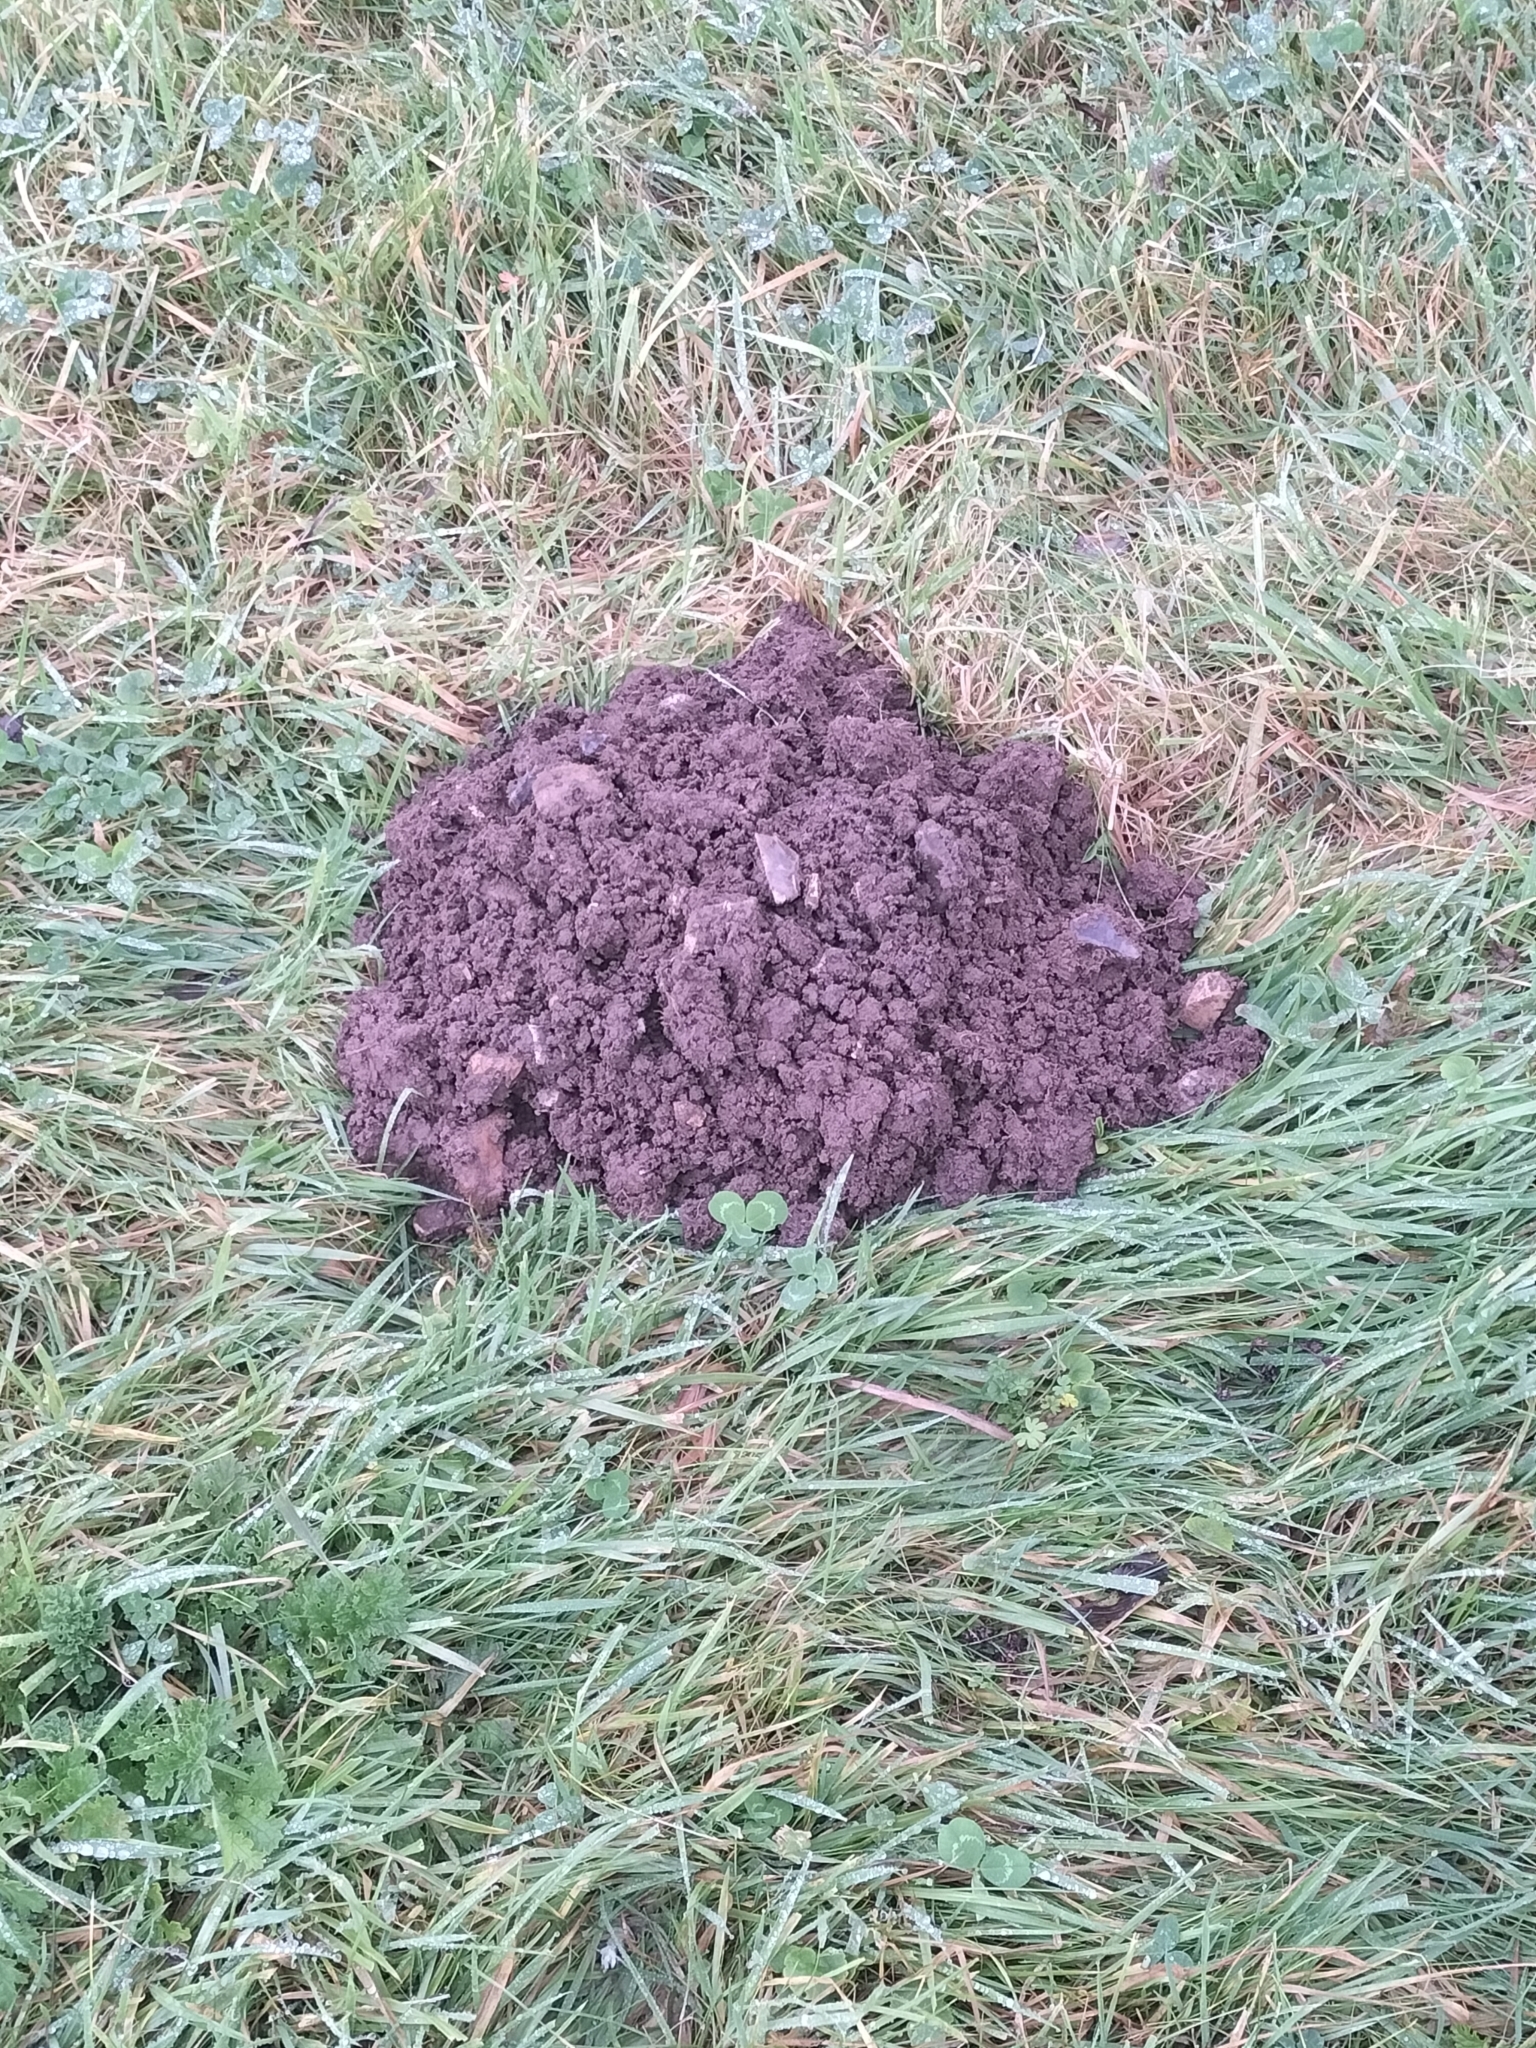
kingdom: Animalia
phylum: Chordata
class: Mammalia
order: Soricomorpha
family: Talpidae
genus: Talpa
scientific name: Talpa europaea
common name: European mole
